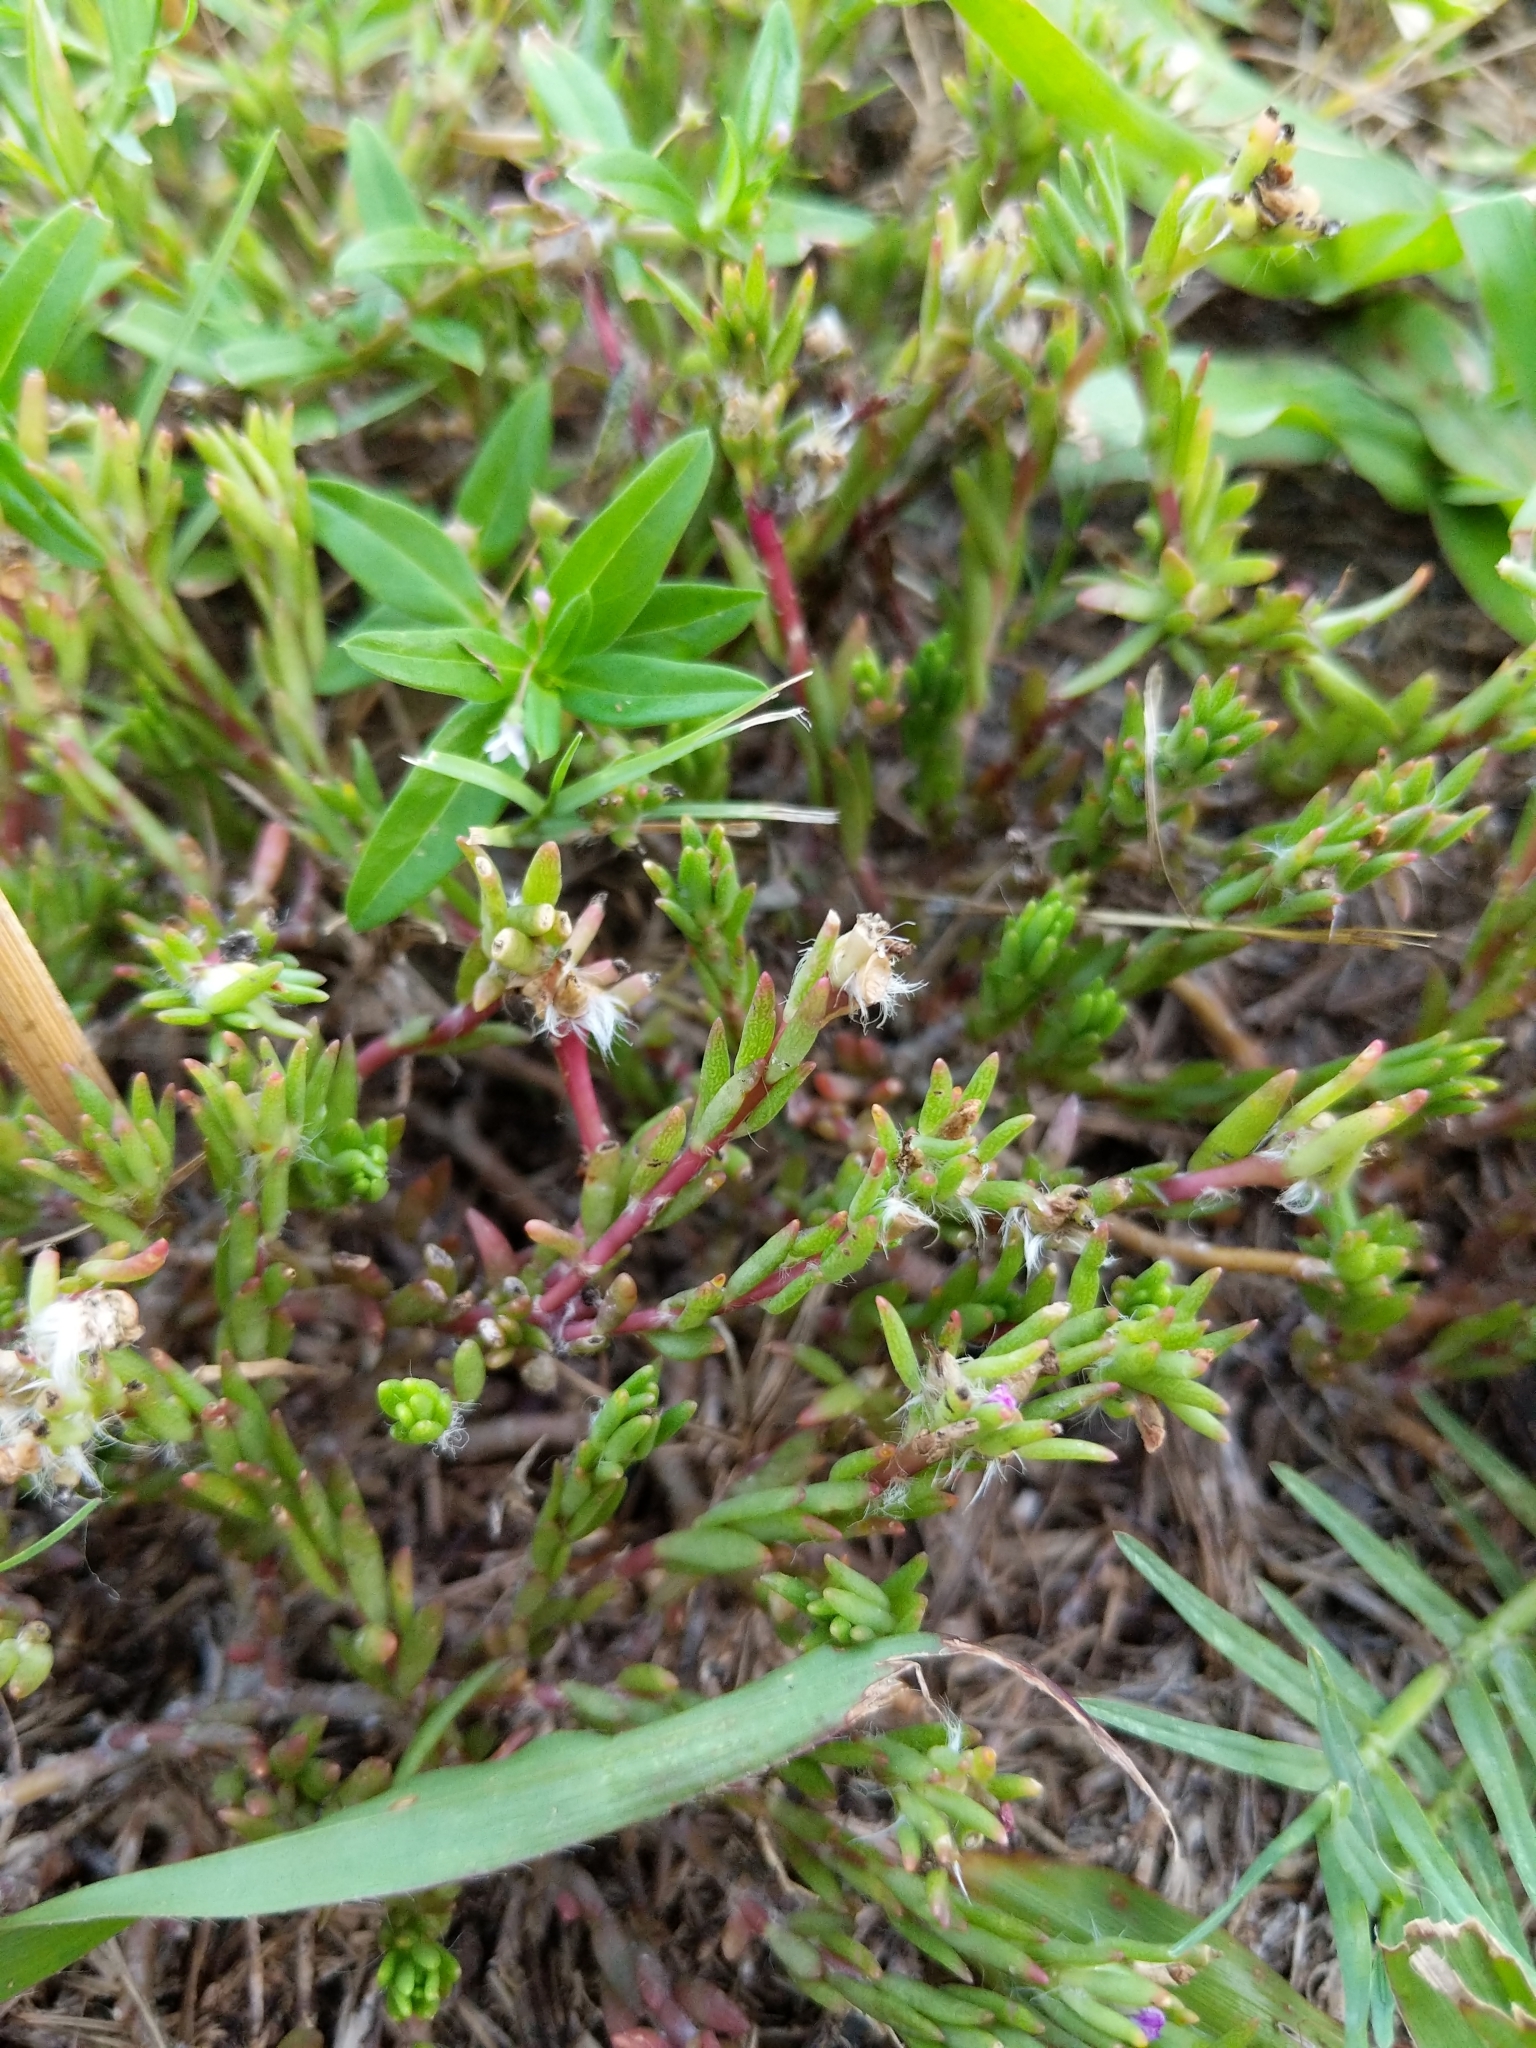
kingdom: Plantae
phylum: Tracheophyta
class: Magnoliopsida
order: Caryophyllales
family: Portulacaceae
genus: Portulaca
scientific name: Portulaca pilosa
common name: Kiss me quick
